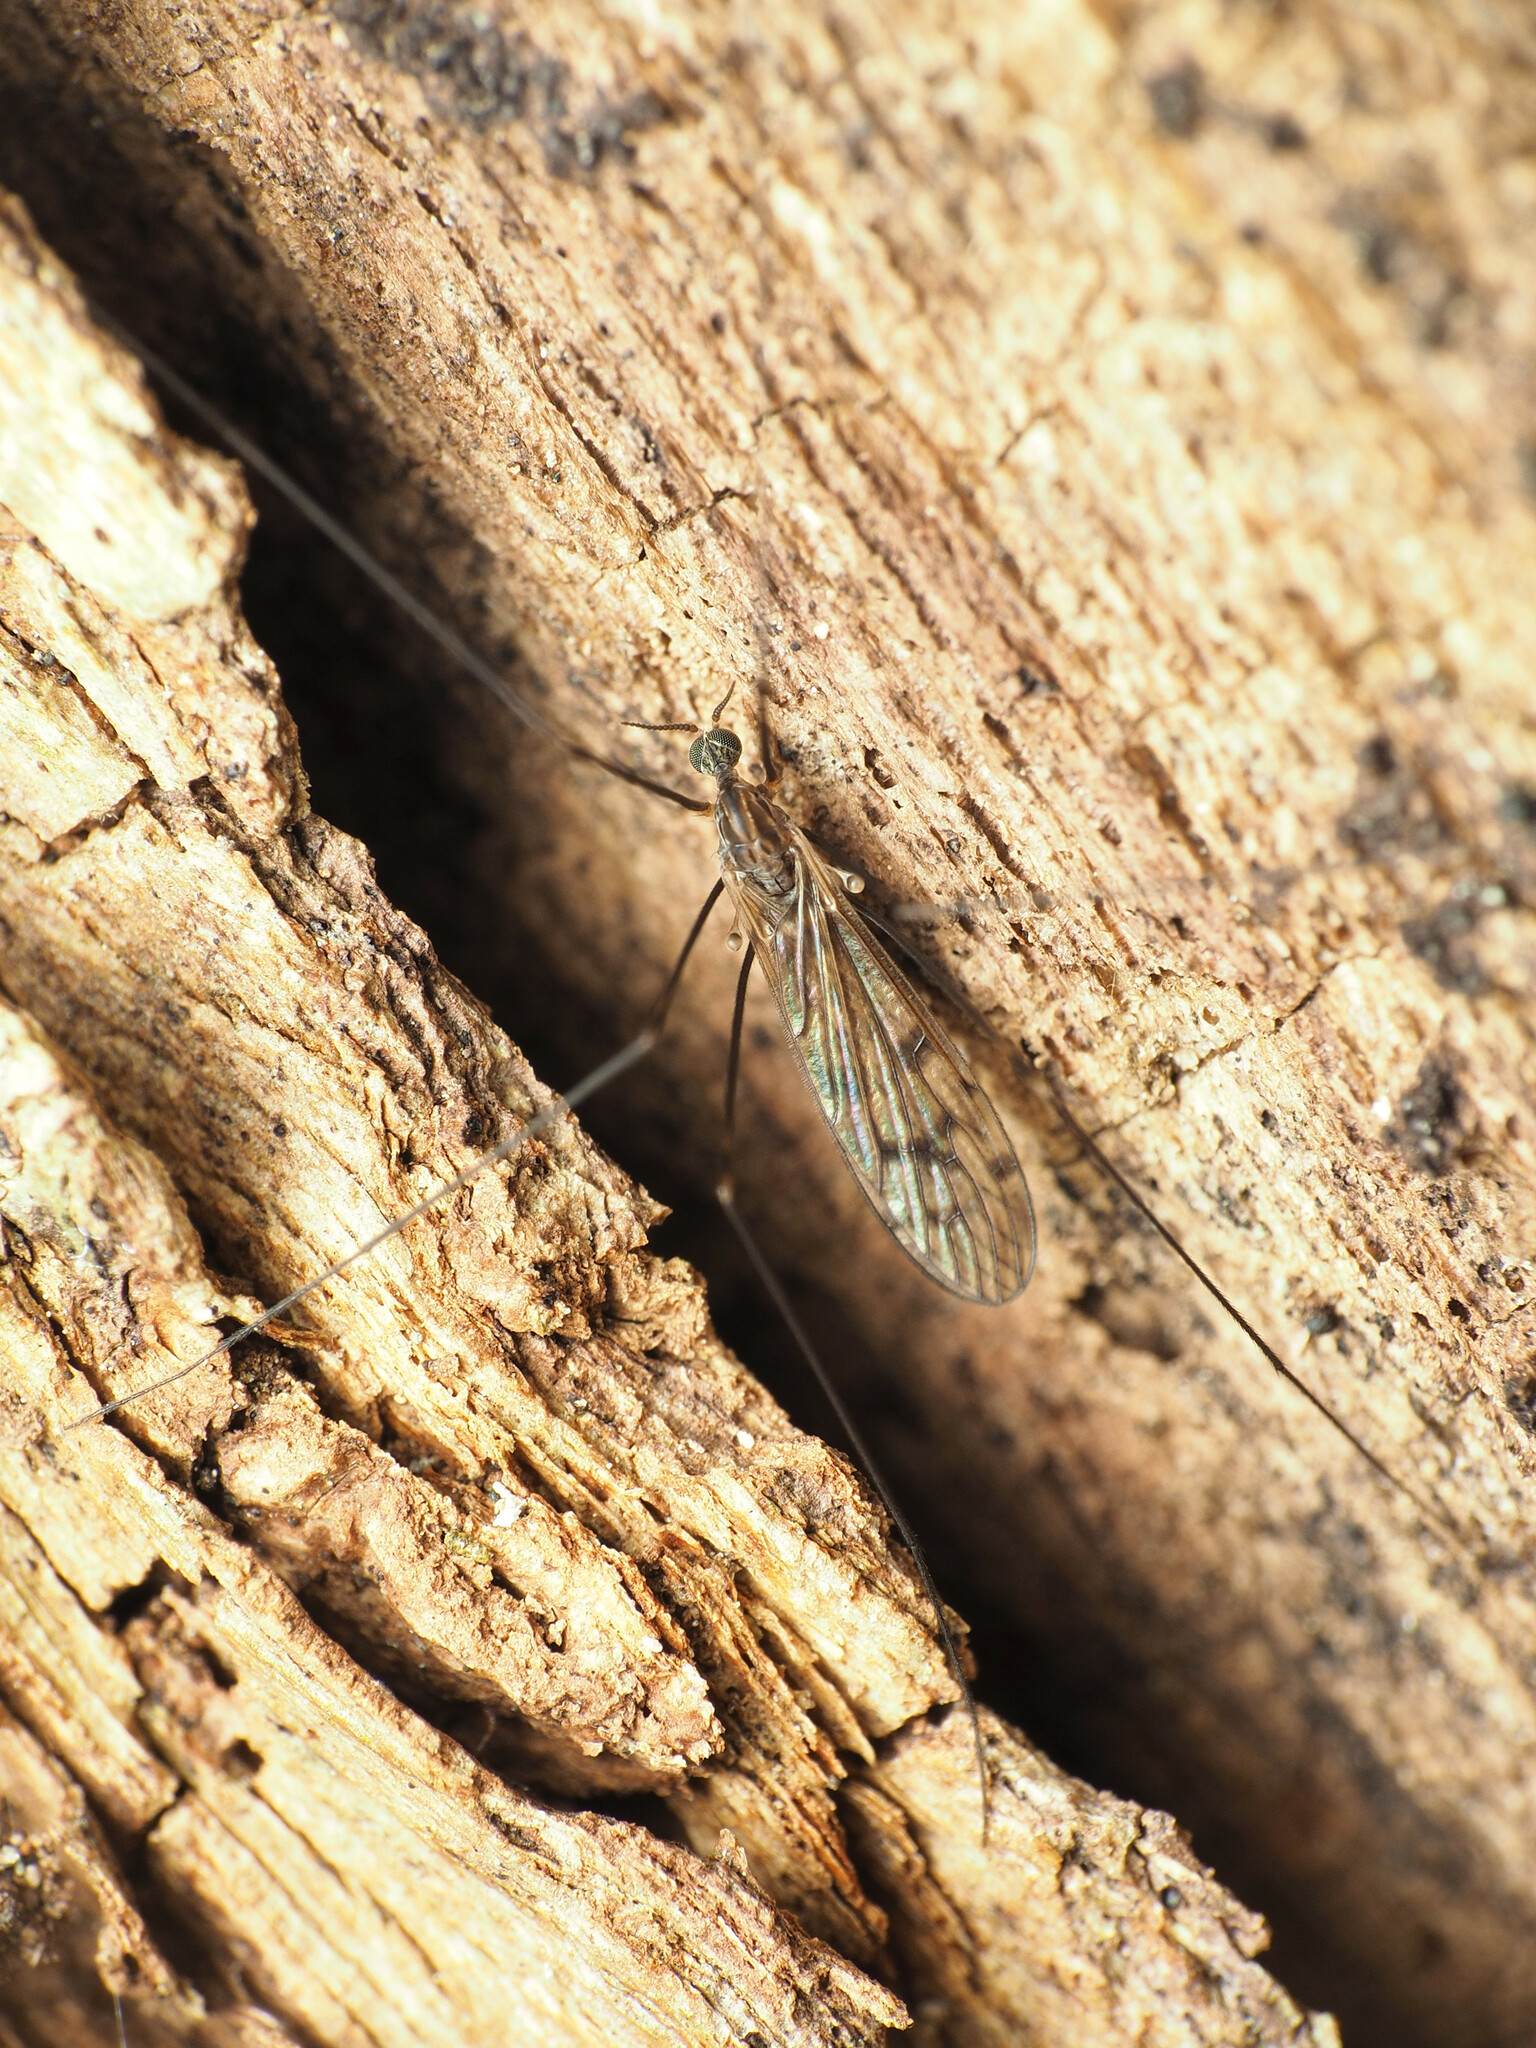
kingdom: Animalia
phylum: Arthropoda
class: Insecta
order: Diptera
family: Limoniidae
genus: Metalimnobia
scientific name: Metalimnobia novaeangliae
